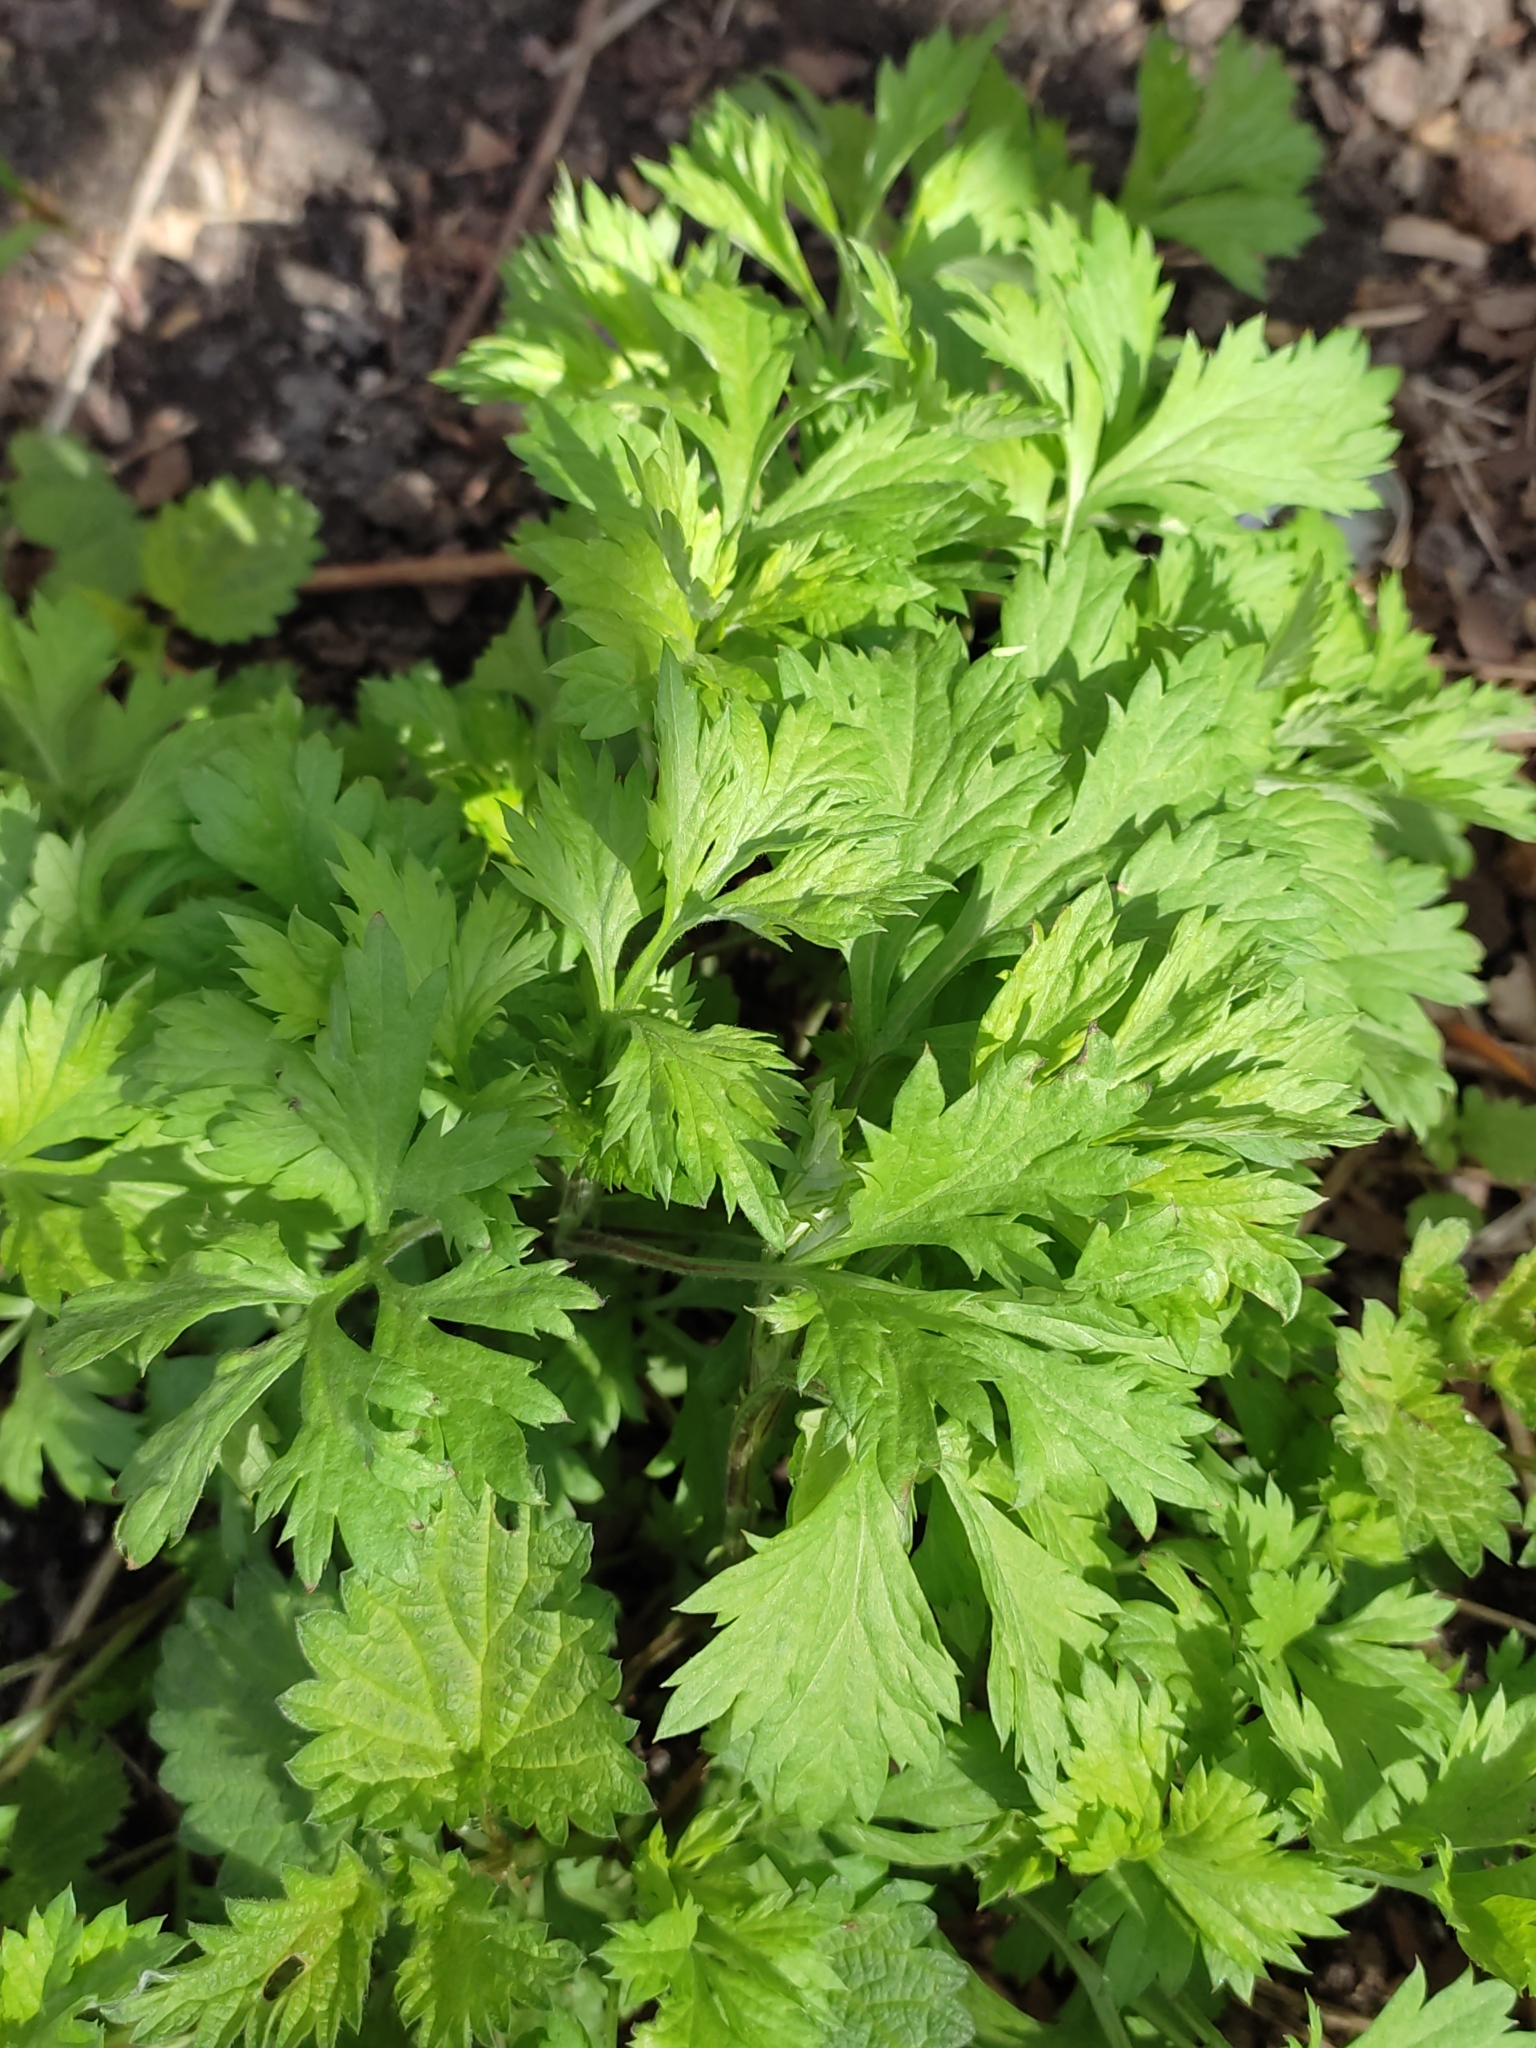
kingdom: Plantae
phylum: Tracheophyta
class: Magnoliopsida
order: Asterales
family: Asteraceae
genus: Artemisia
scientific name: Artemisia vulgaris
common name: Mugwort
